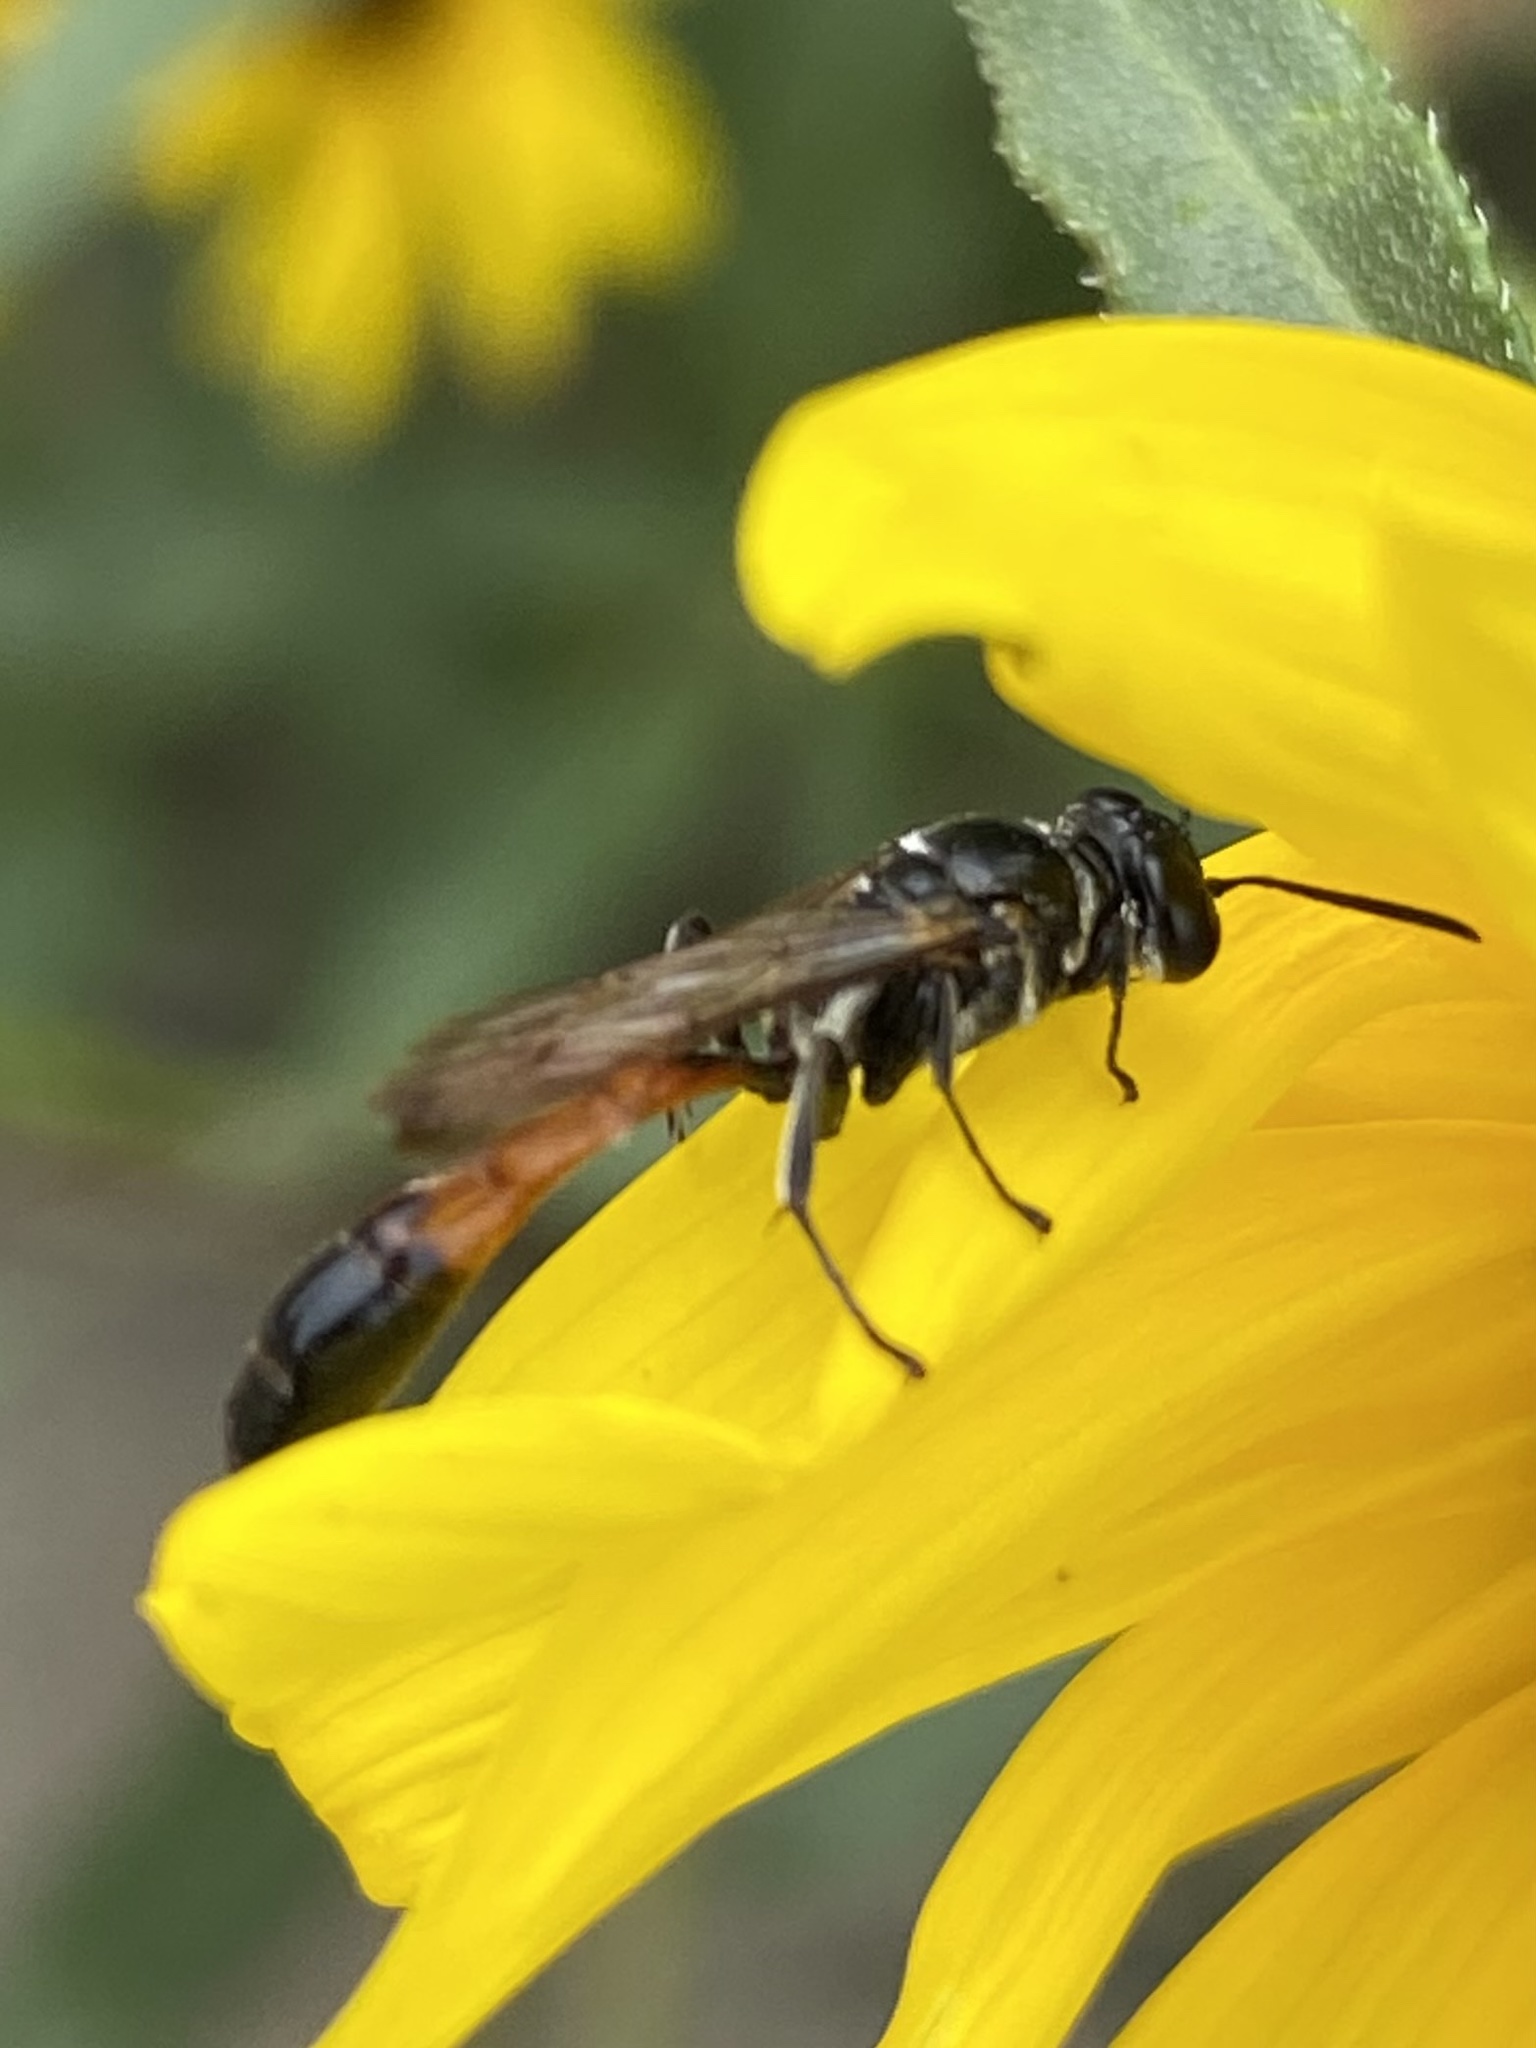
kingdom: Animalia
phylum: Arthropoda
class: Insecta
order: Hymenoptera
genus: Trypargilum
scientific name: Trypargilum
